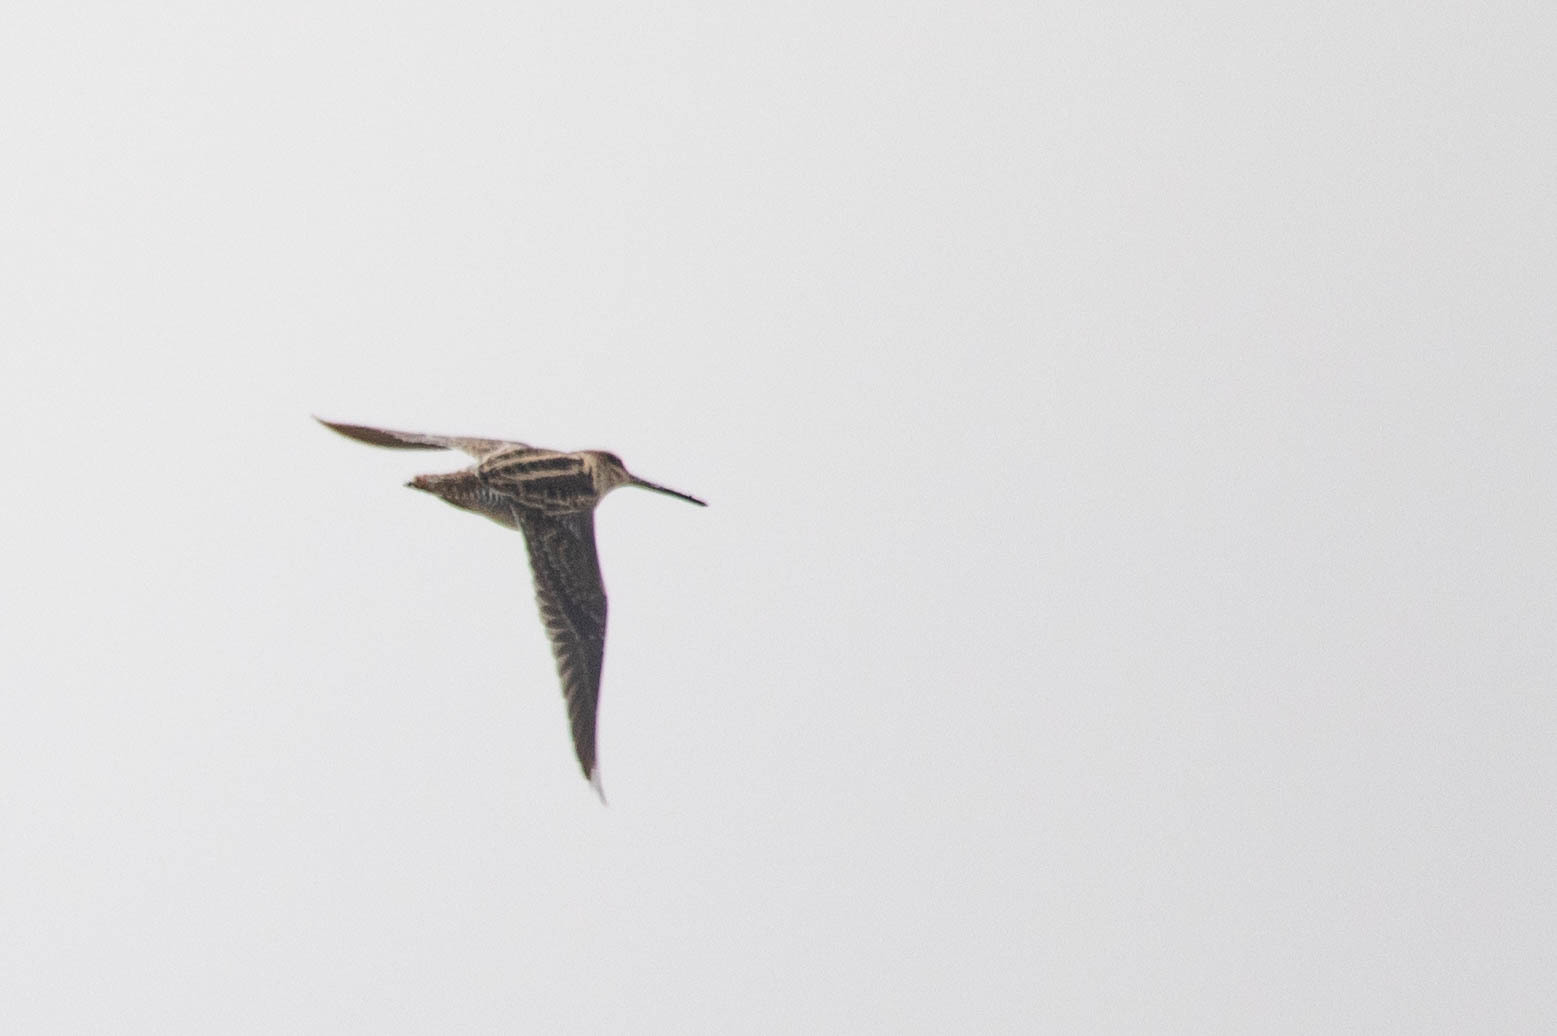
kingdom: Animalia
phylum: Chordata
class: Aves
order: Charadriiformes
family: Scolopacidae
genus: Gallinago
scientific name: Gallinago delicata
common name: Wilson's snipe
